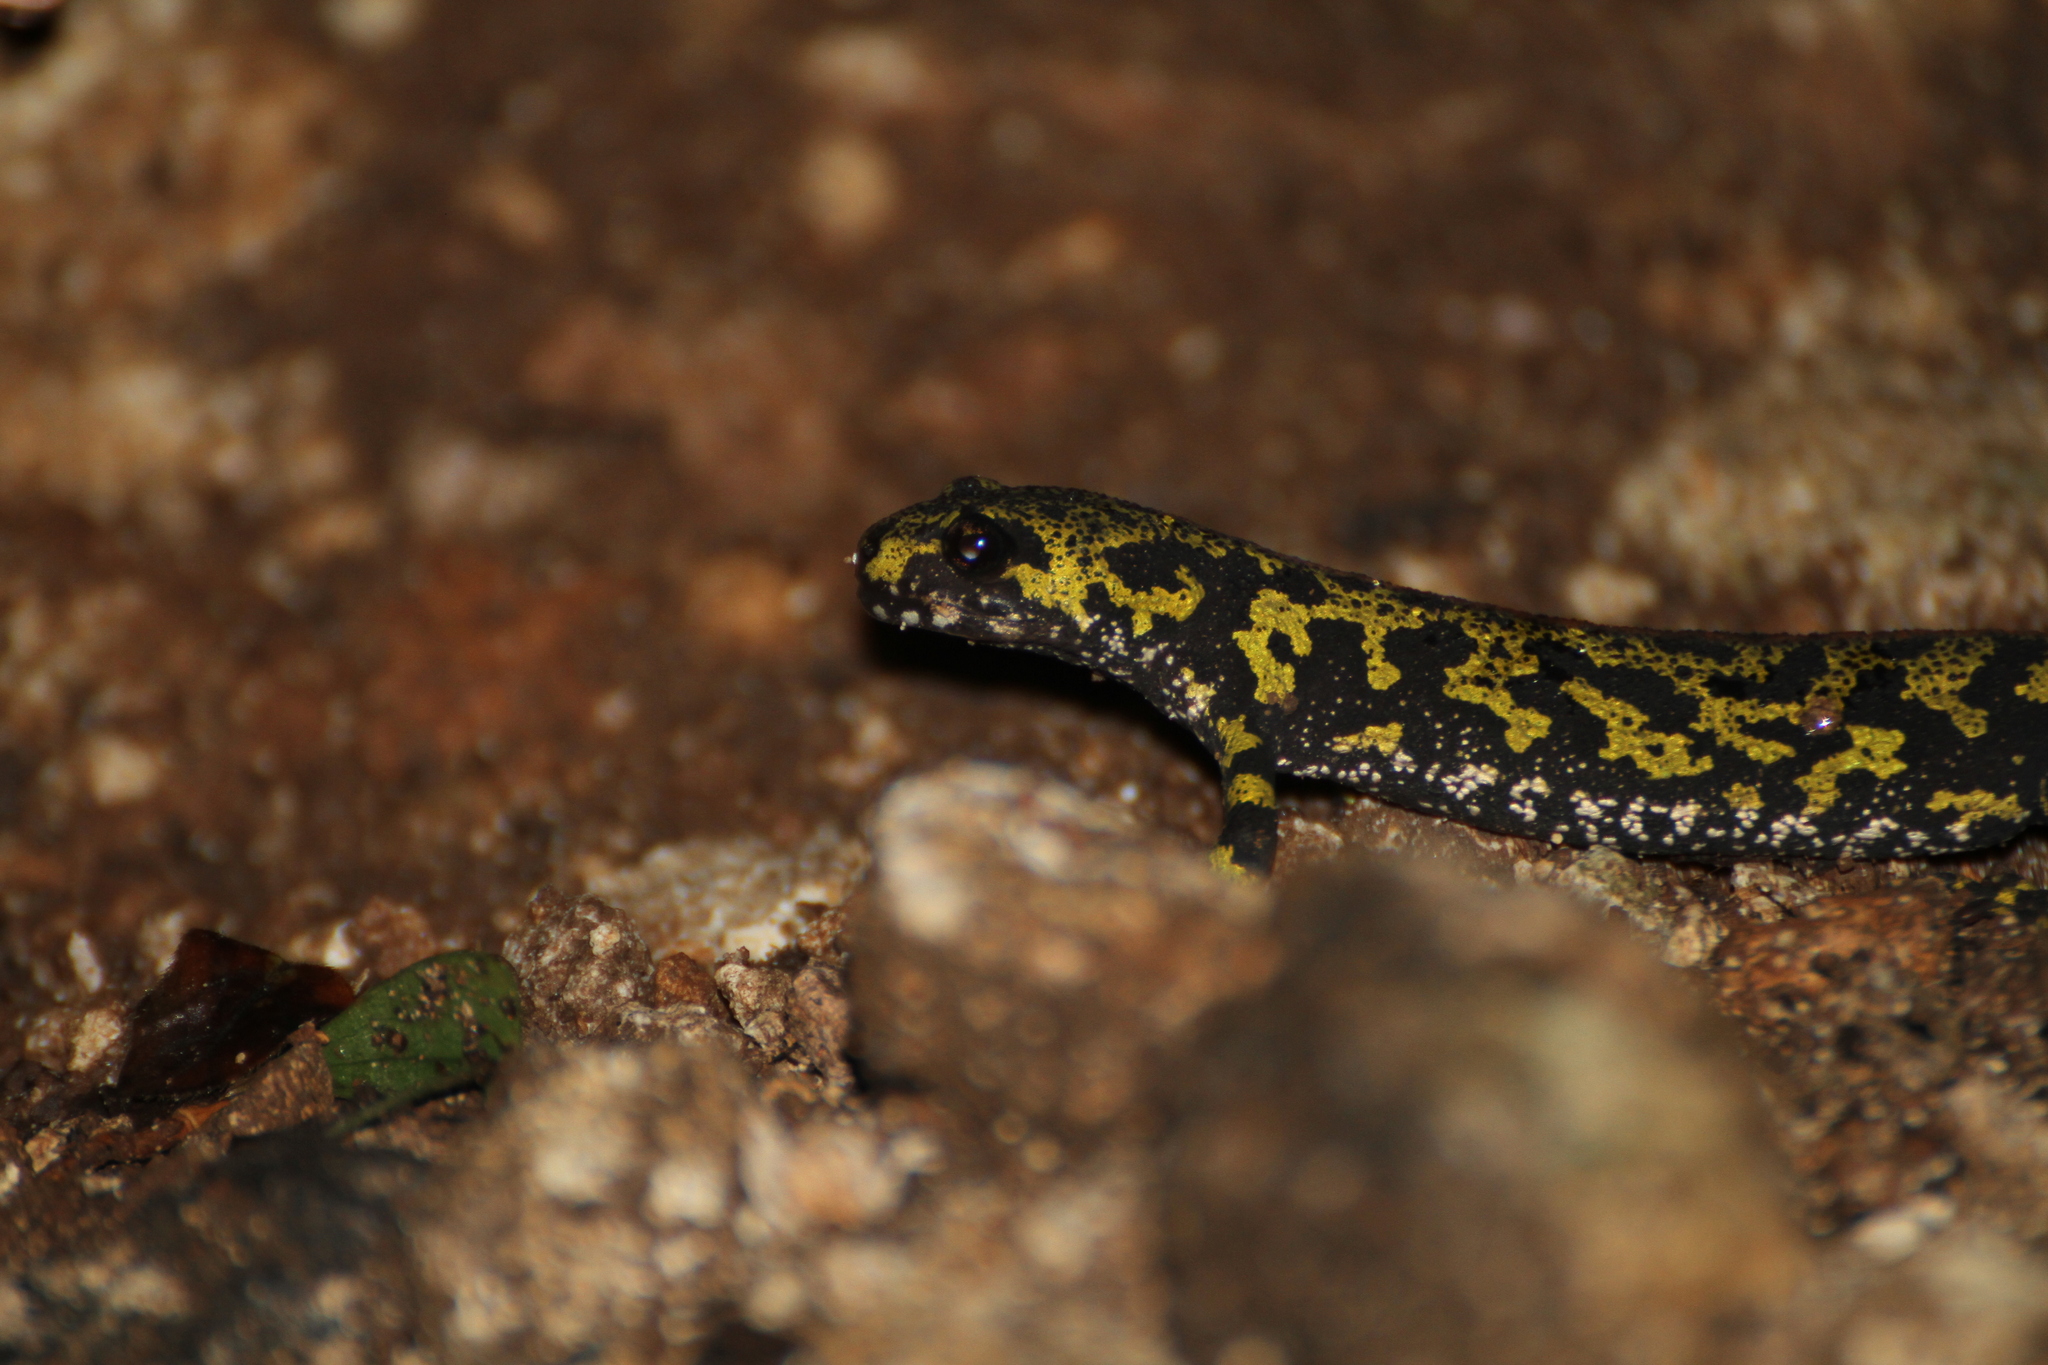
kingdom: Animalia
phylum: Chordata
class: Amphibia
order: Caudata
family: Salamandridae
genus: Triturus
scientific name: Triturus marmoratus
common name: Marbled newt
